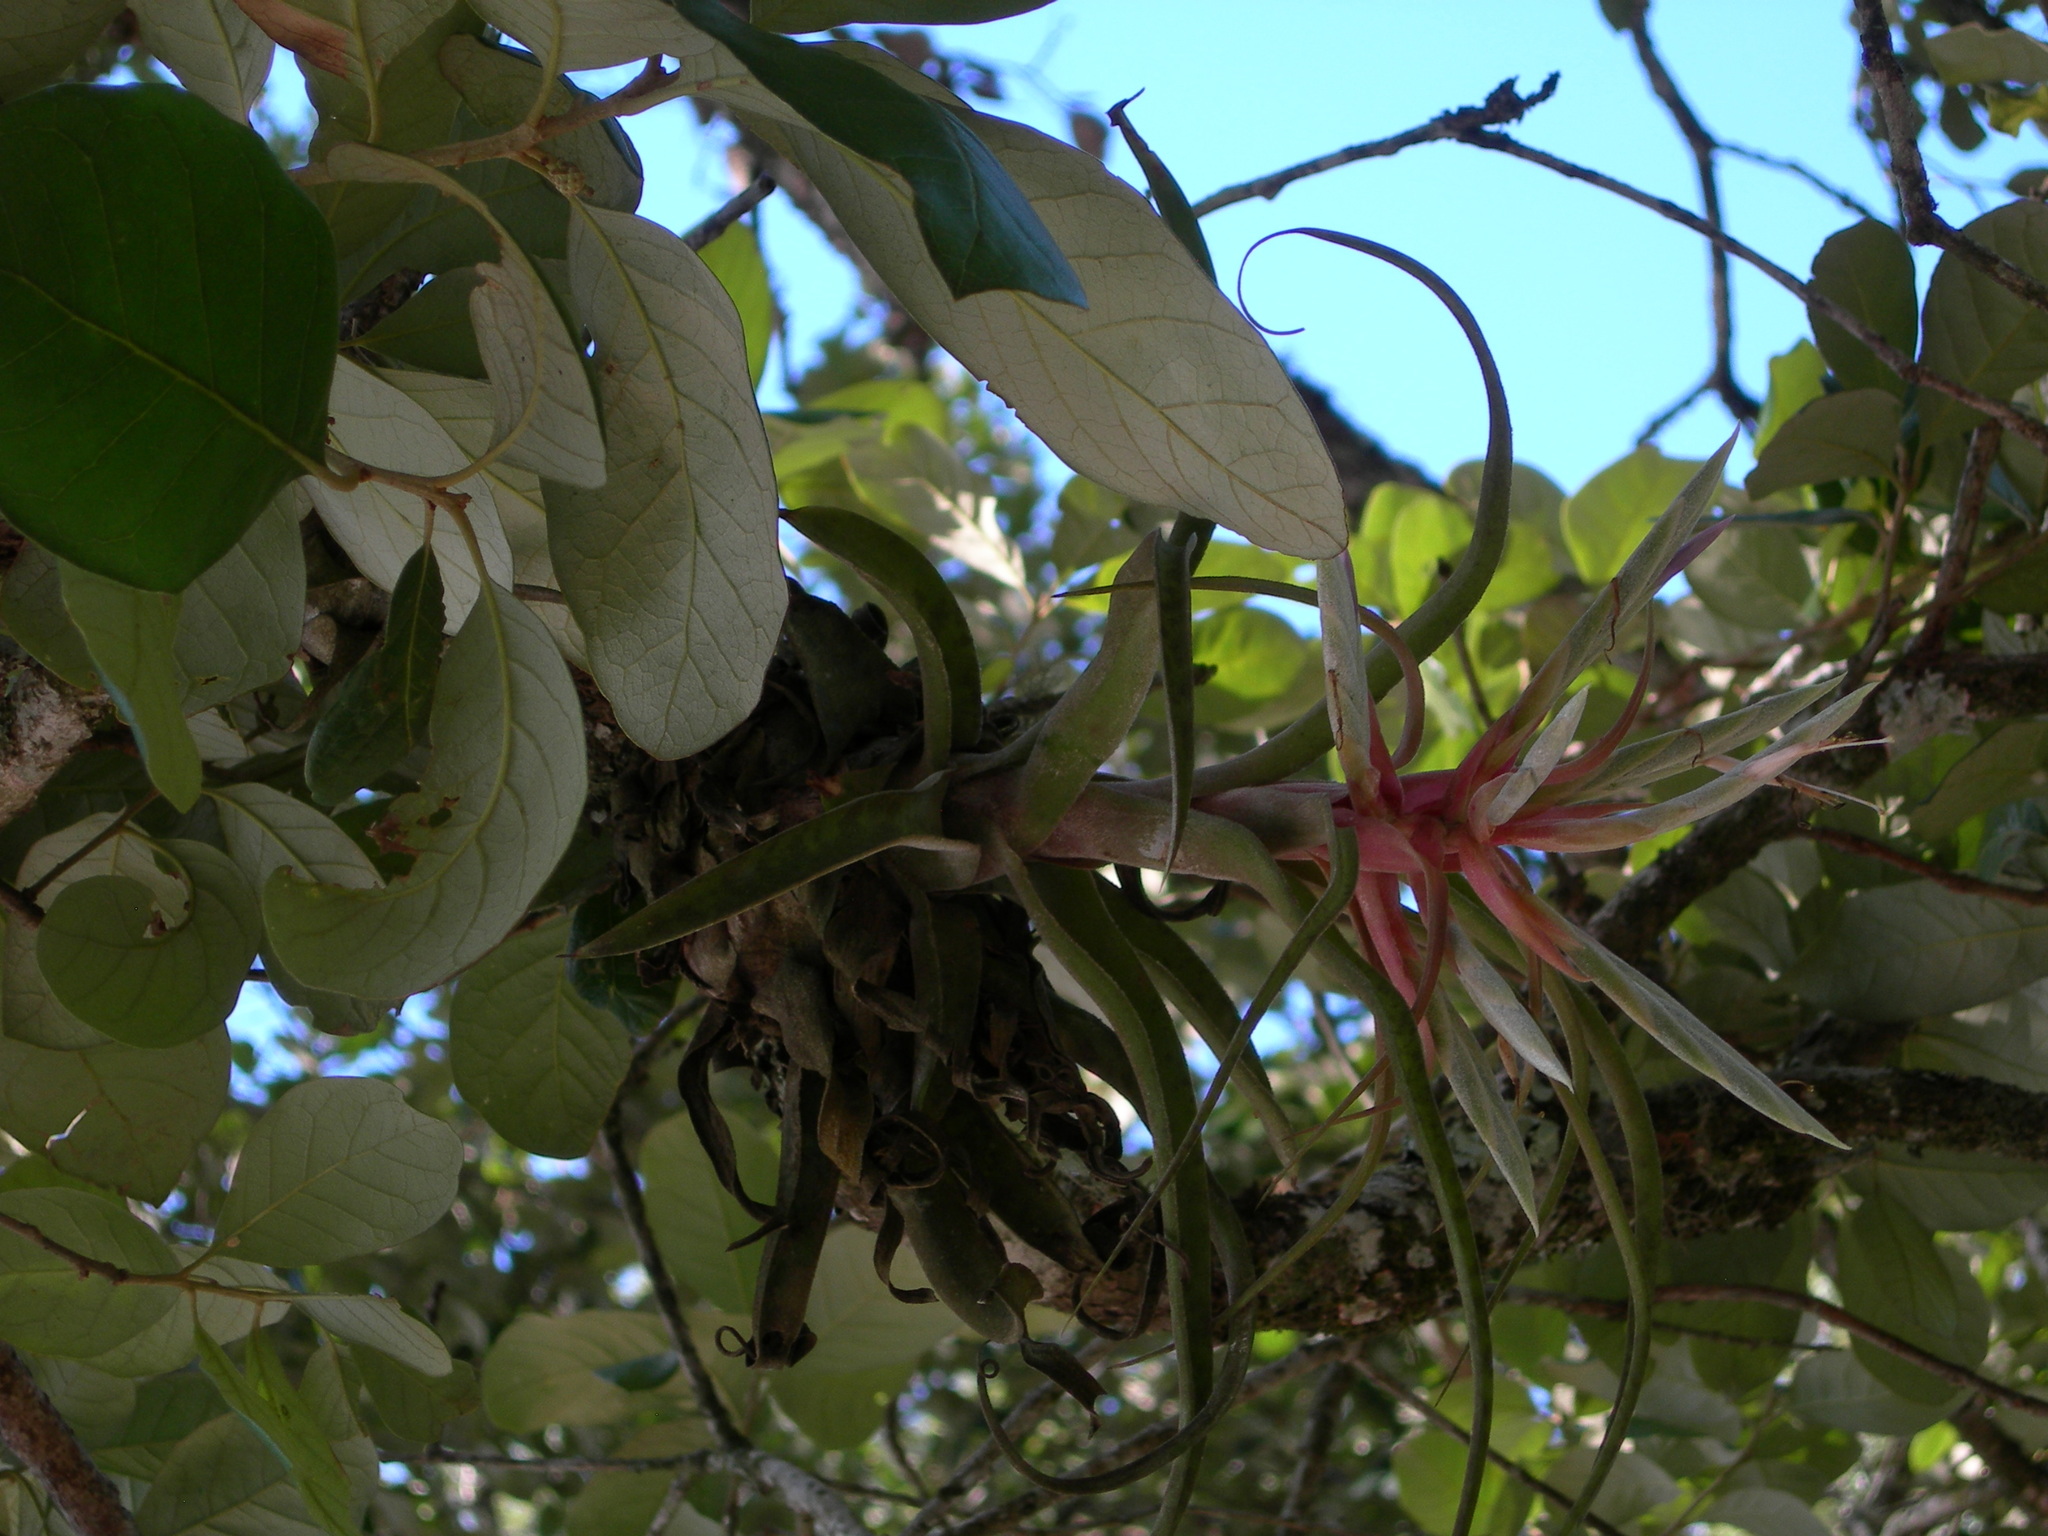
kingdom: Plantae
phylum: Tracheophyta
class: Liliopsida
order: Poales
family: Bromeliaceae
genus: Tillandsia
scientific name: Tillandsia streptophylla
